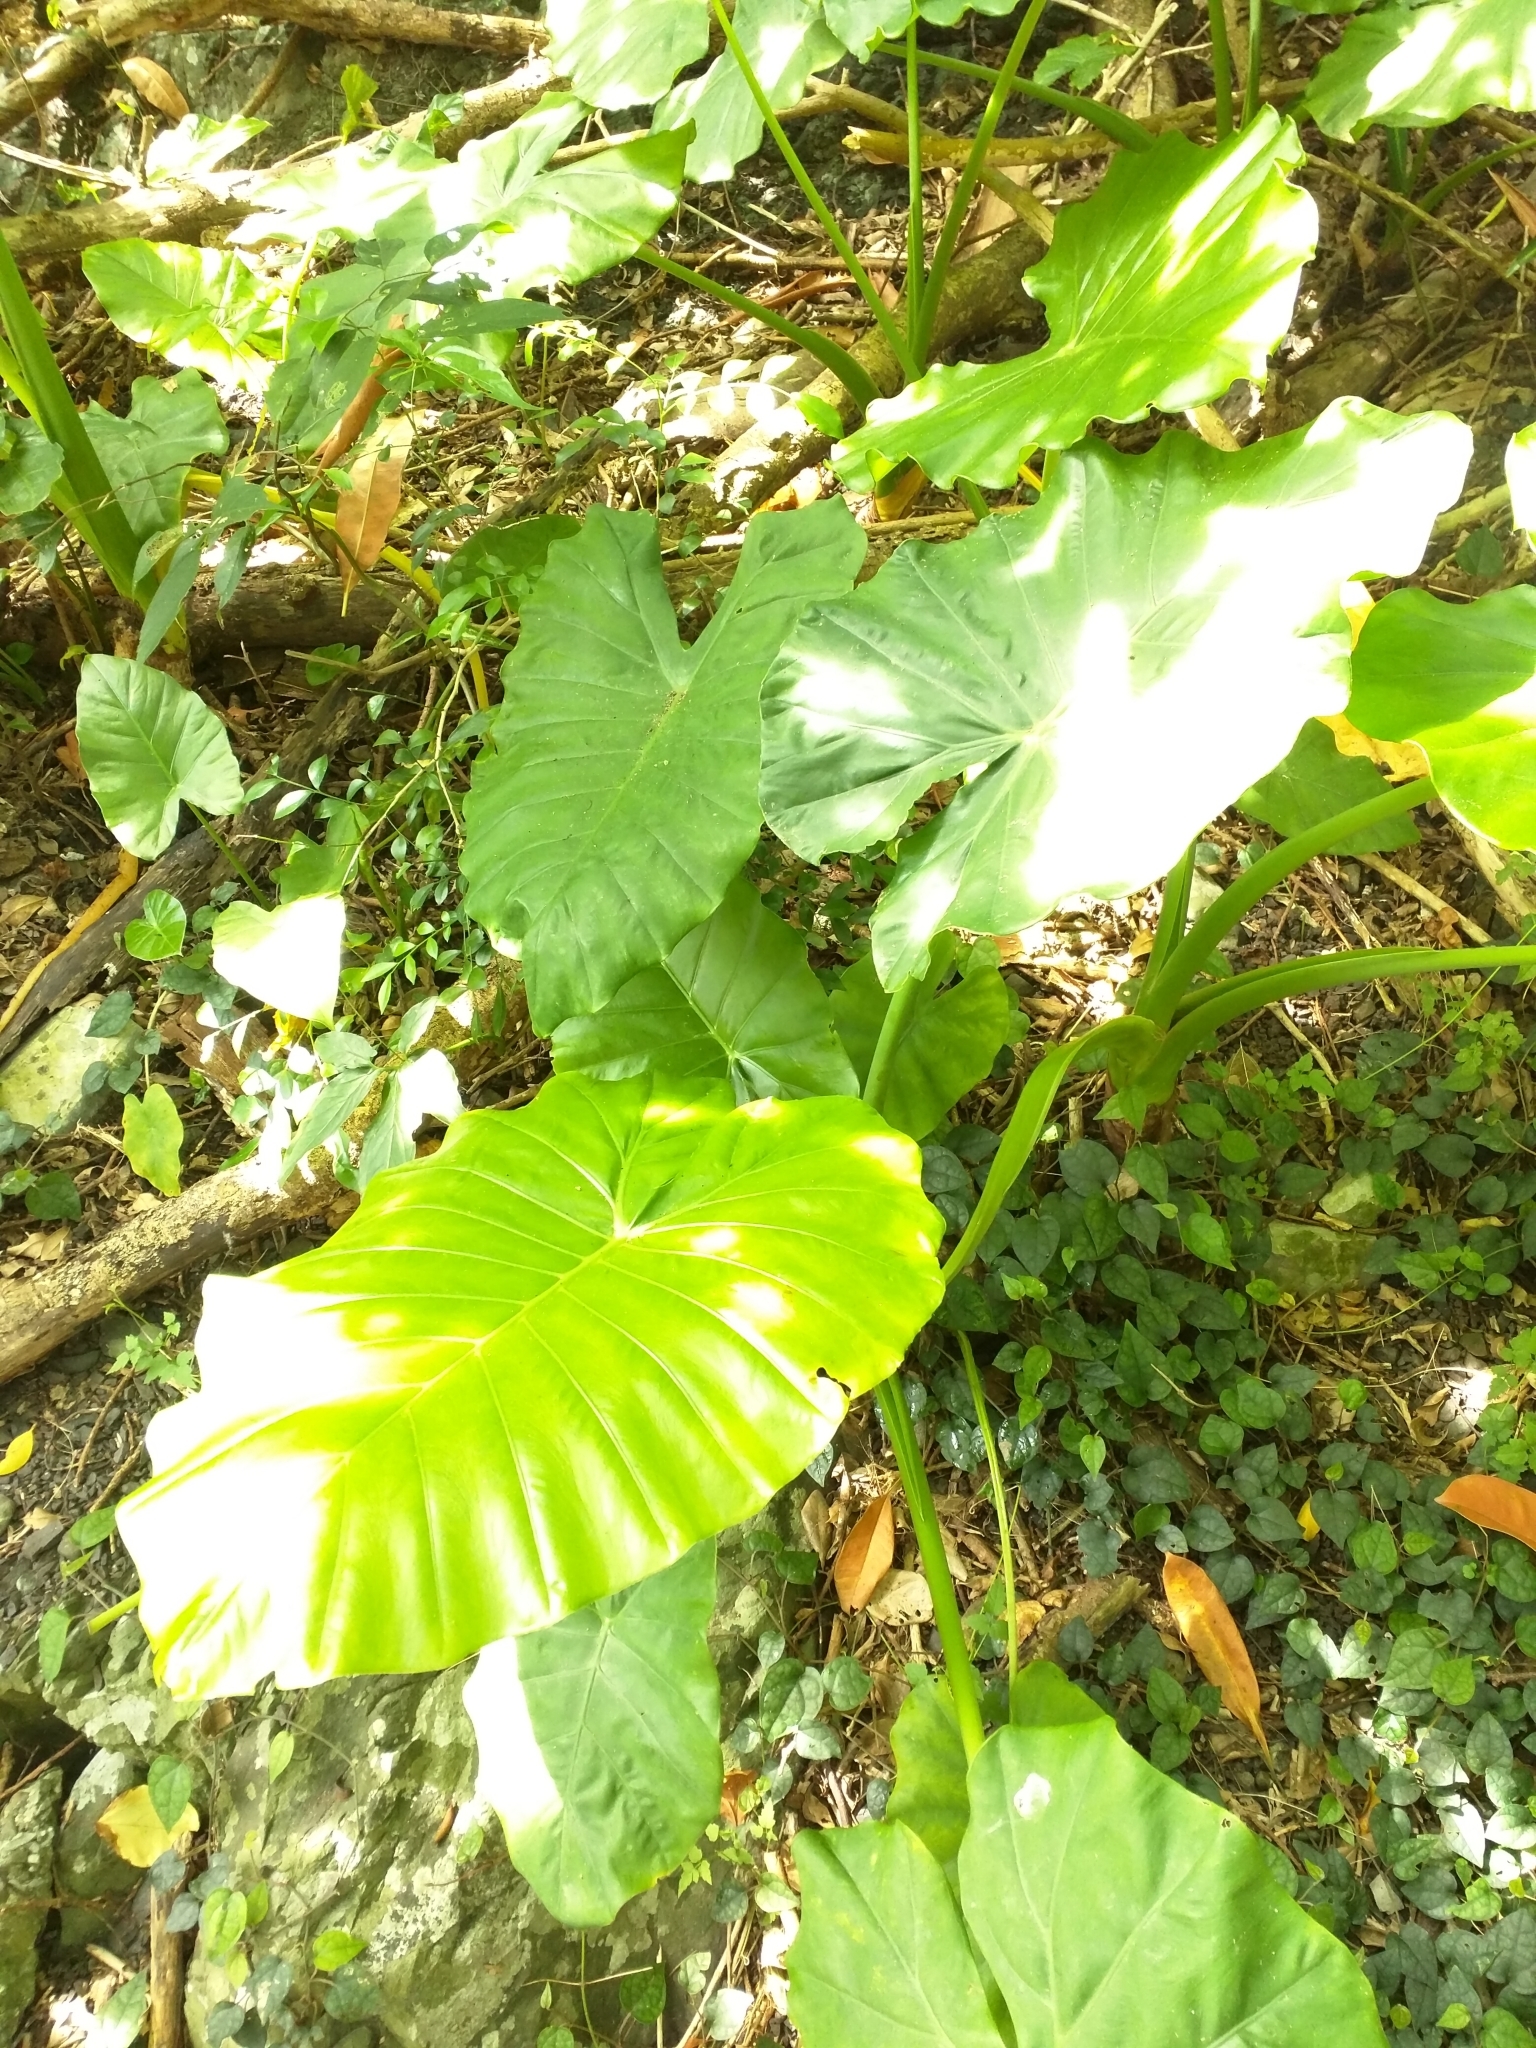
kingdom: Plantae
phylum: Tracheophyta
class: Liliopsida
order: Alismatales
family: Araceae
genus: Alocasia
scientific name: Alocasia odora
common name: Asian taro
